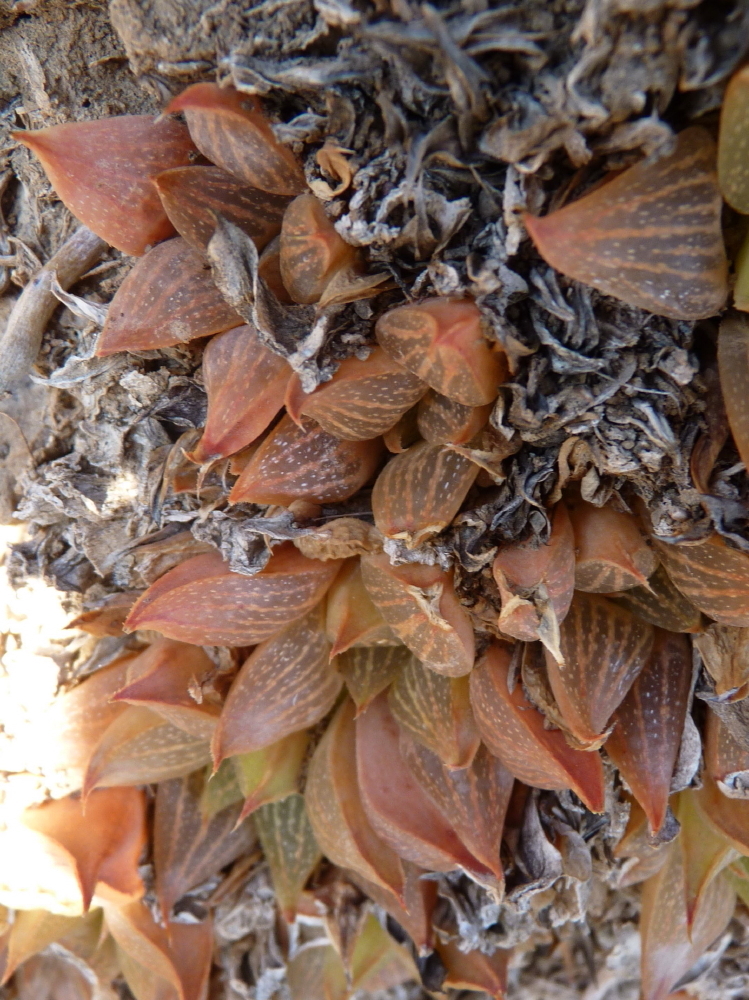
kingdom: Plantae
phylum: Tracheophyta
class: Liliopsida
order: Asparagales
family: Asphodelaceae
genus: Haworthia
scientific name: Haworthia retusa
